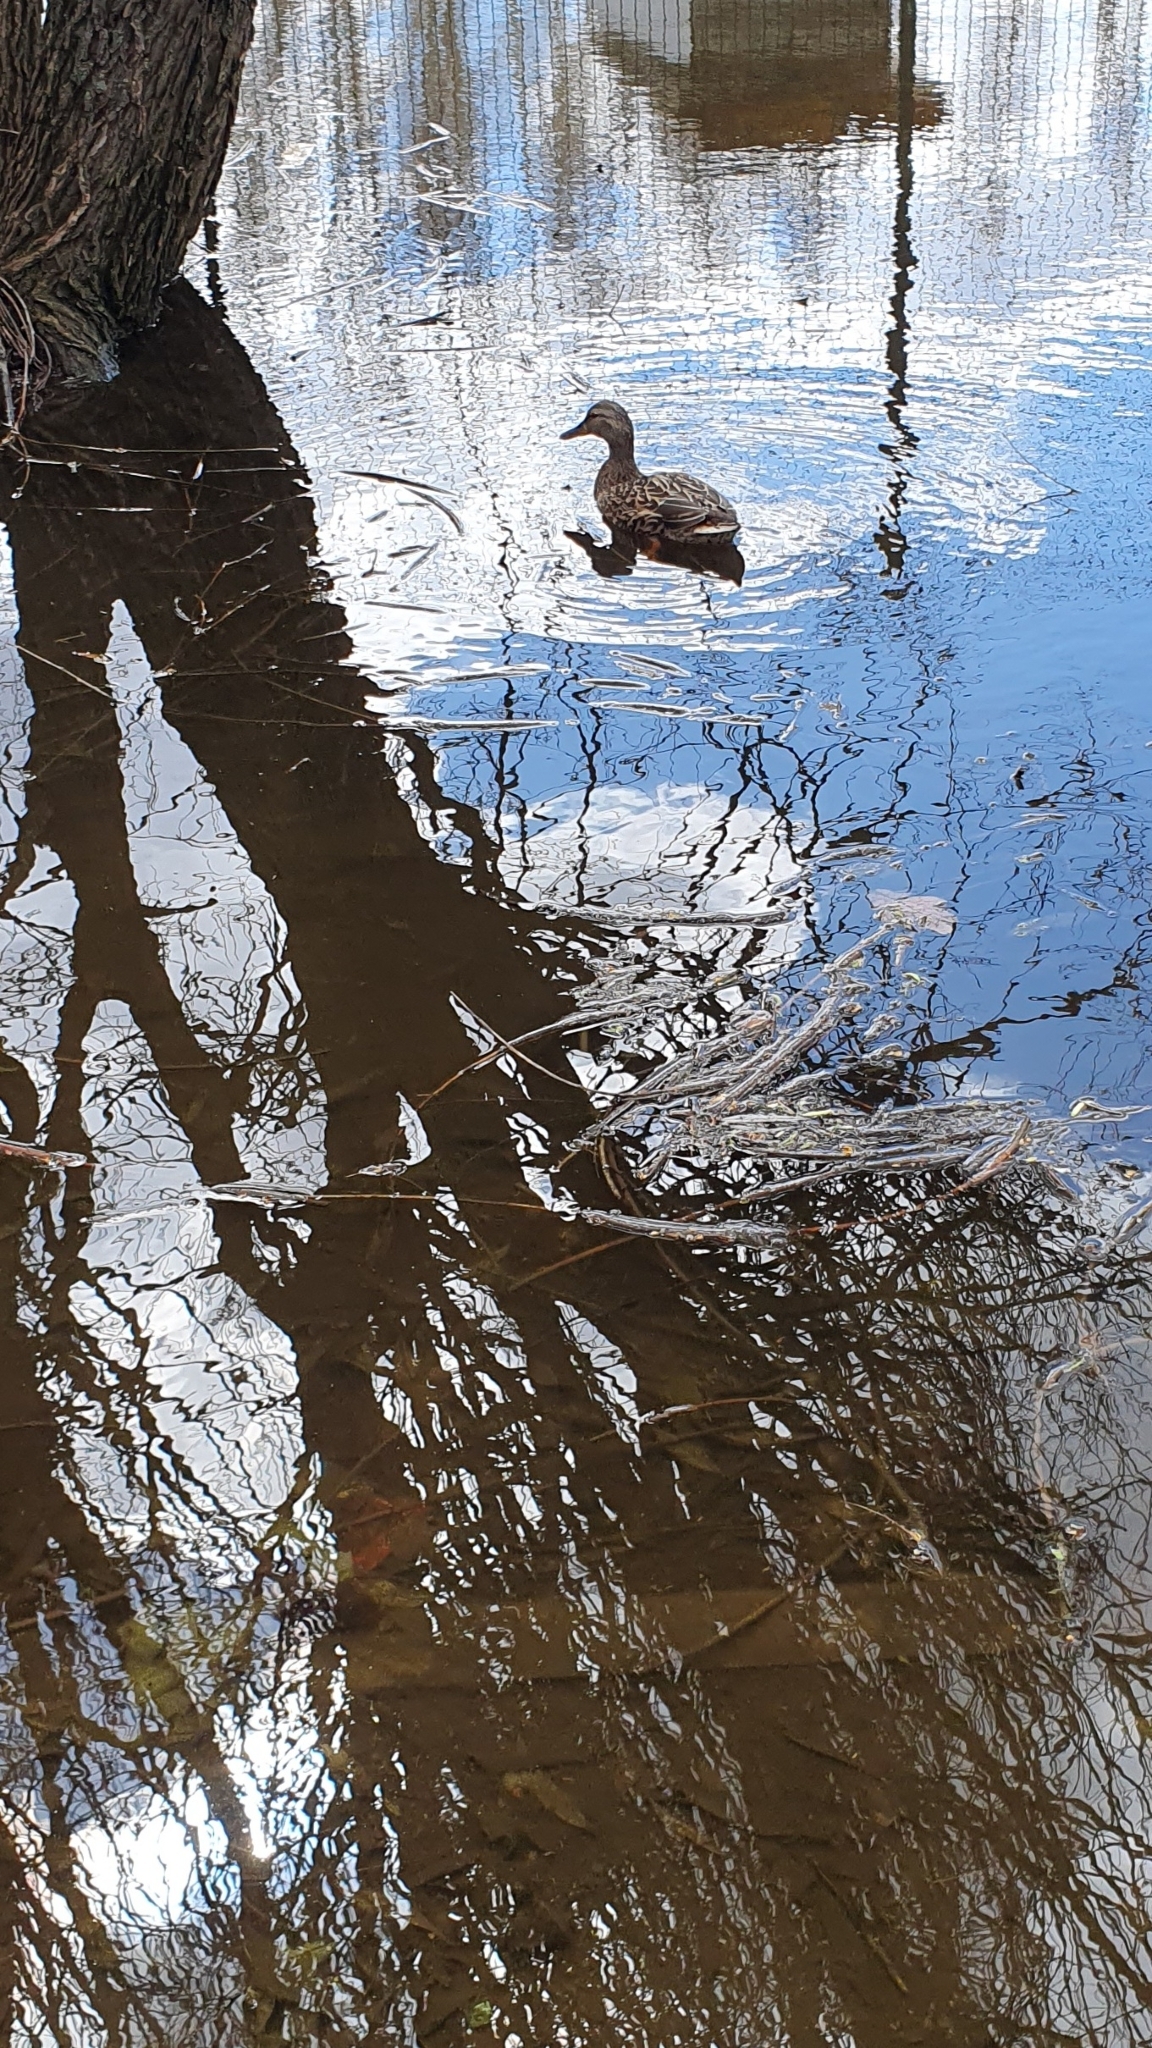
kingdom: Animalia
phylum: Chordata
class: Aves
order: Anseriformes
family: Anatidae
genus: Anas
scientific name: Anas platyrhynchos
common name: Mallard
